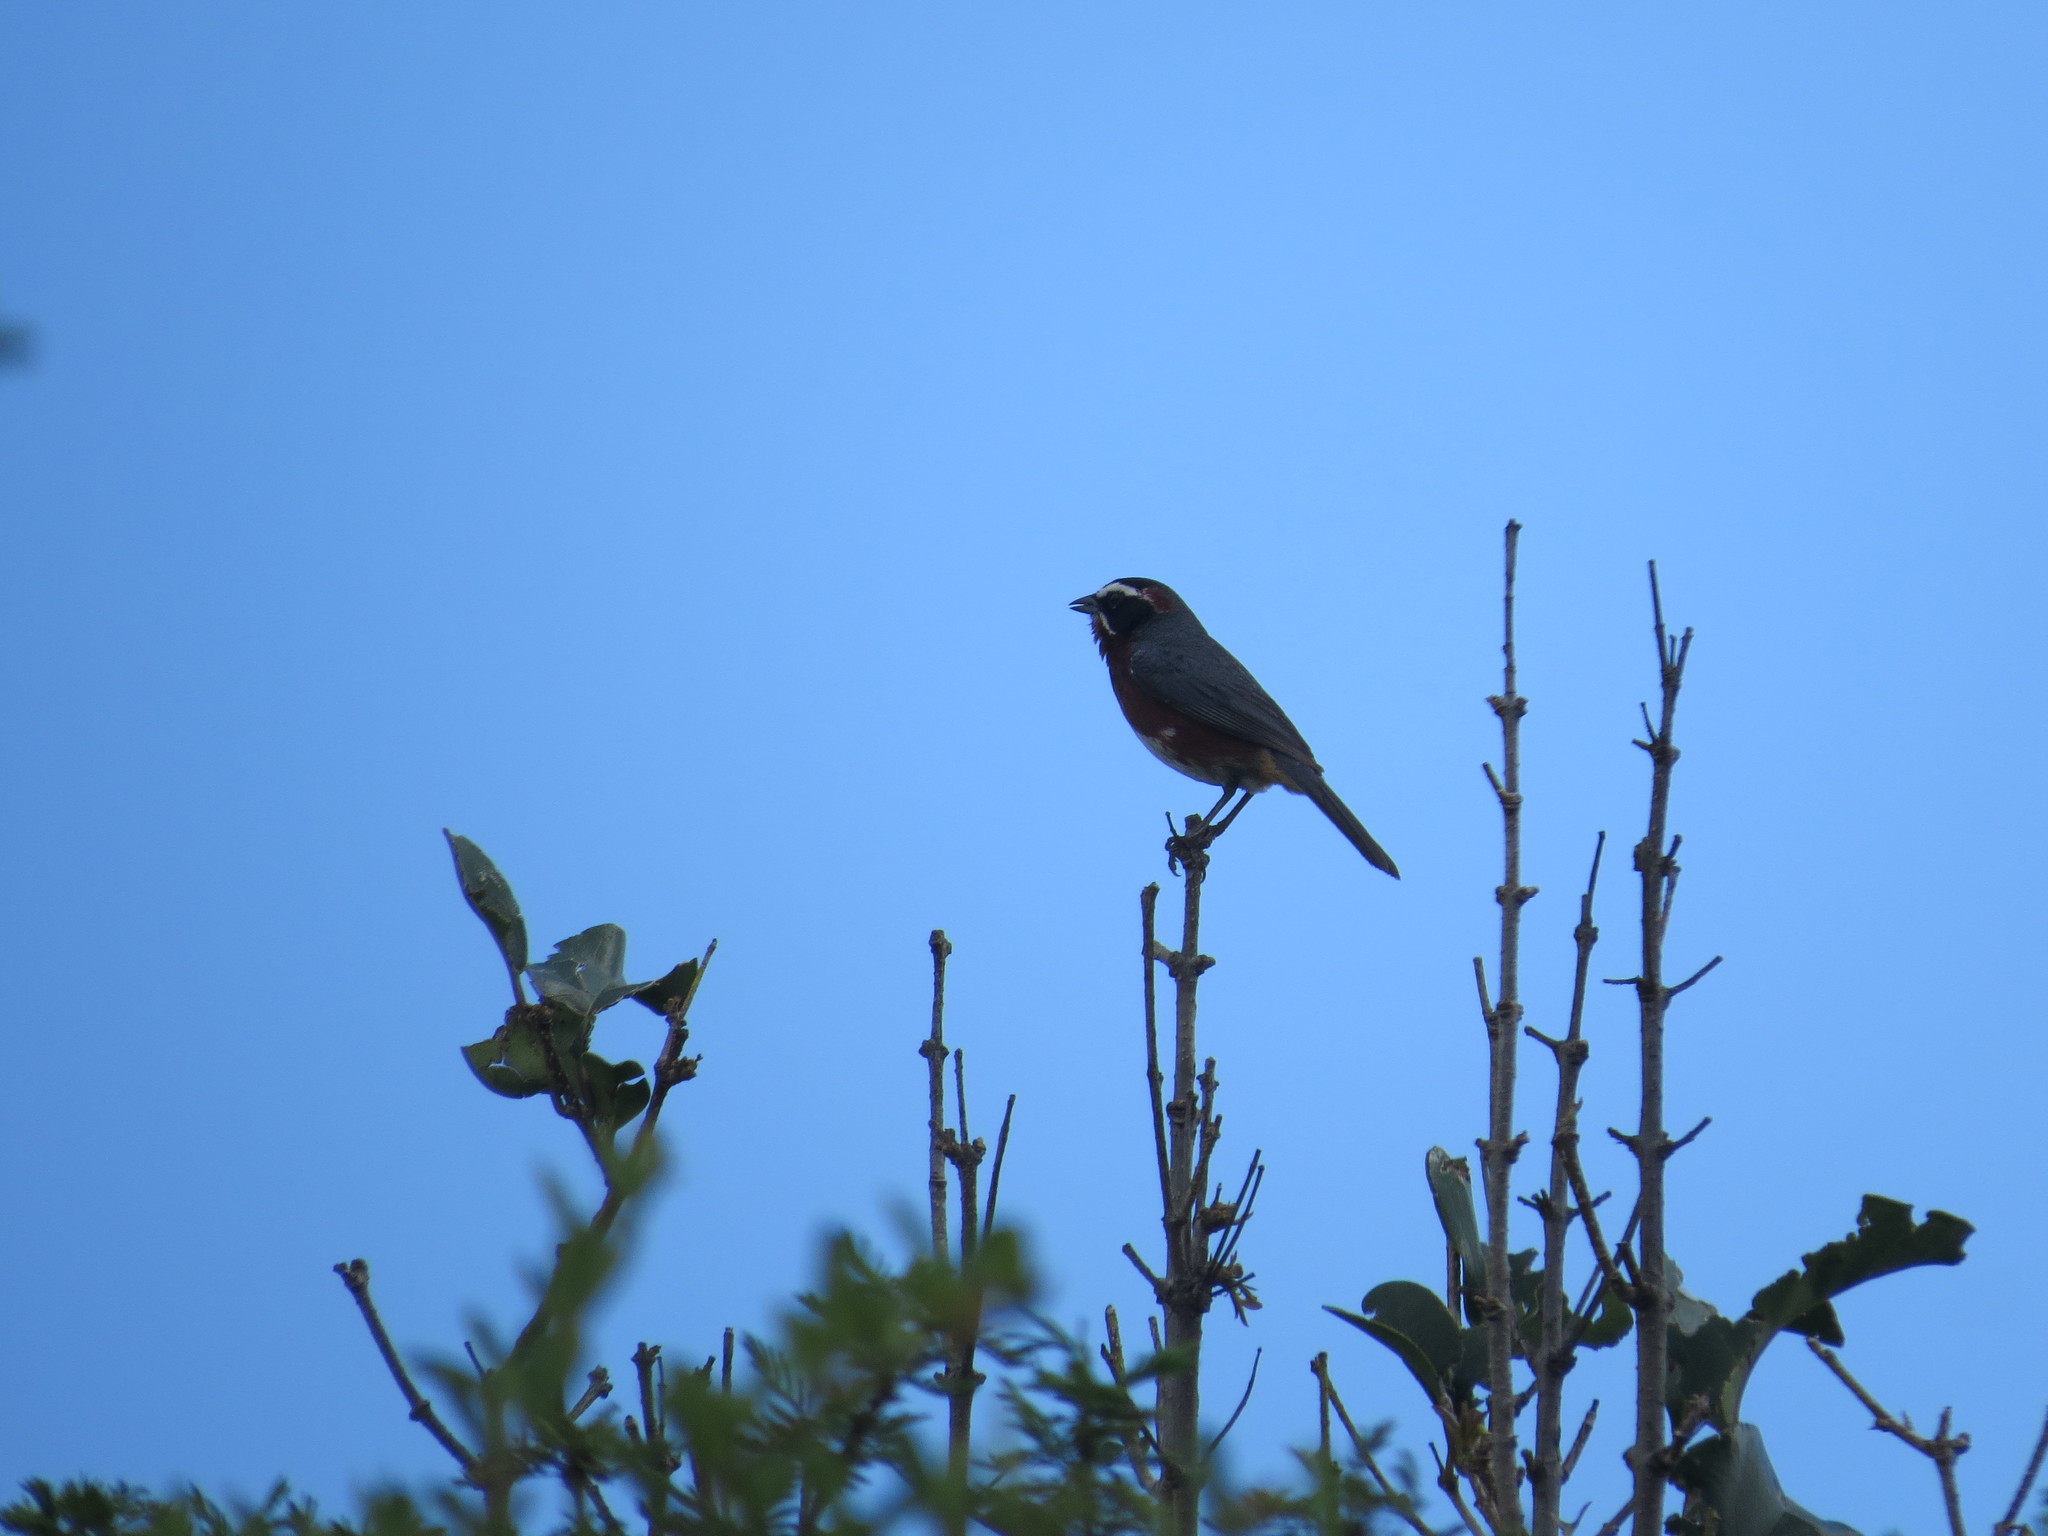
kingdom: Animalia
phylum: Chordata
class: Aves
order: Passeriformes
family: Thraupidae
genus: Poospiza
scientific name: Poospiza whitii
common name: Black-and-chestnut warbling finch
